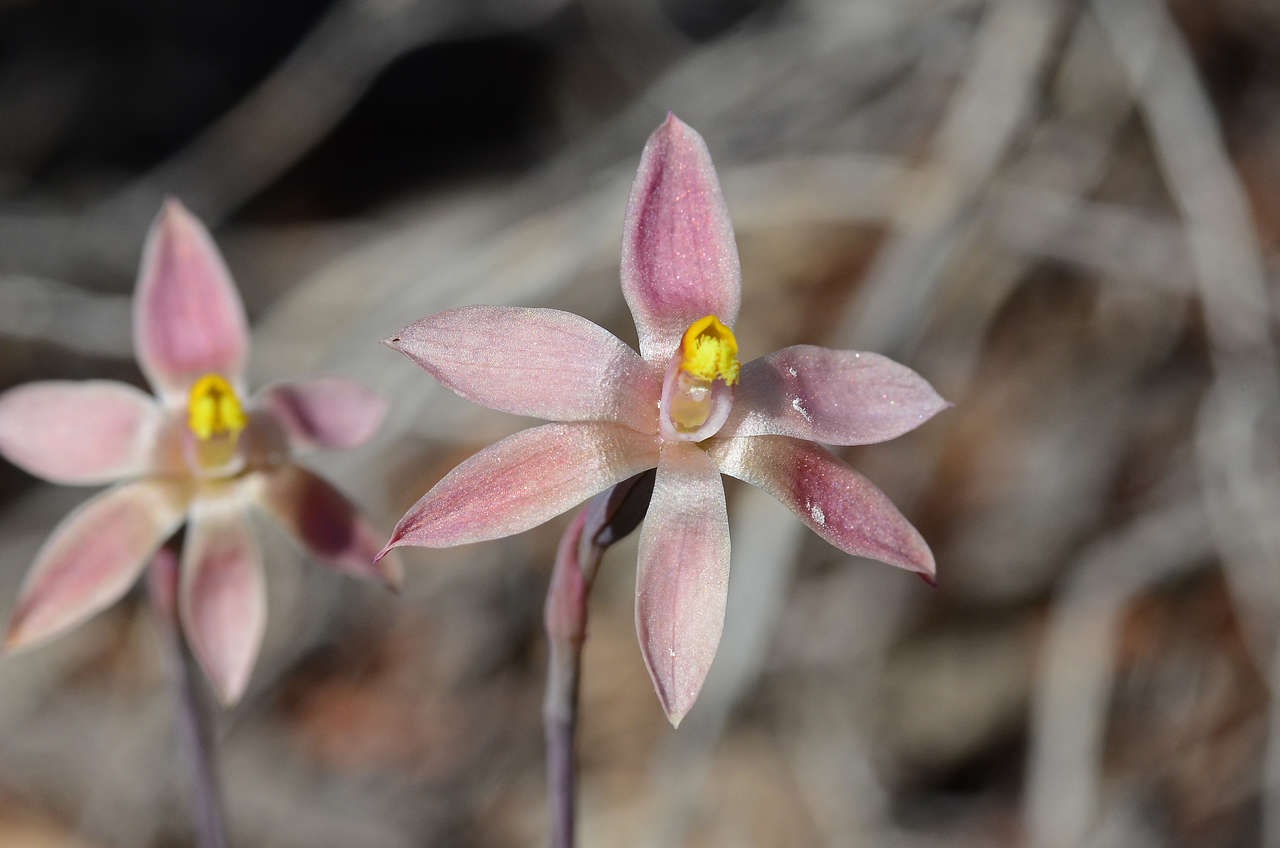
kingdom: Plantae
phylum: Tracheophyta
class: Liliopsida
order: Asparagales
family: Orchidaceae
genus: Thelymitra
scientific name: Thelymitra luteocilium
